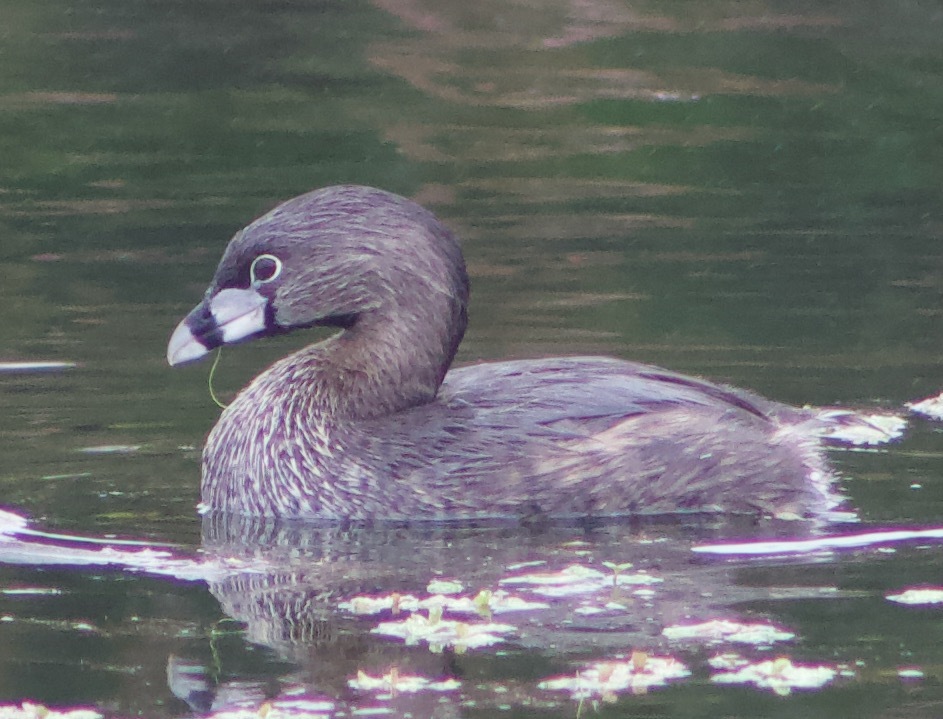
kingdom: Animalia
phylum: Chordata
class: Aves
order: Podicipediformes
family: Podicipedidae
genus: Podilymbus
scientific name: Podilymbus podiceps
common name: Pied-billed grebe
